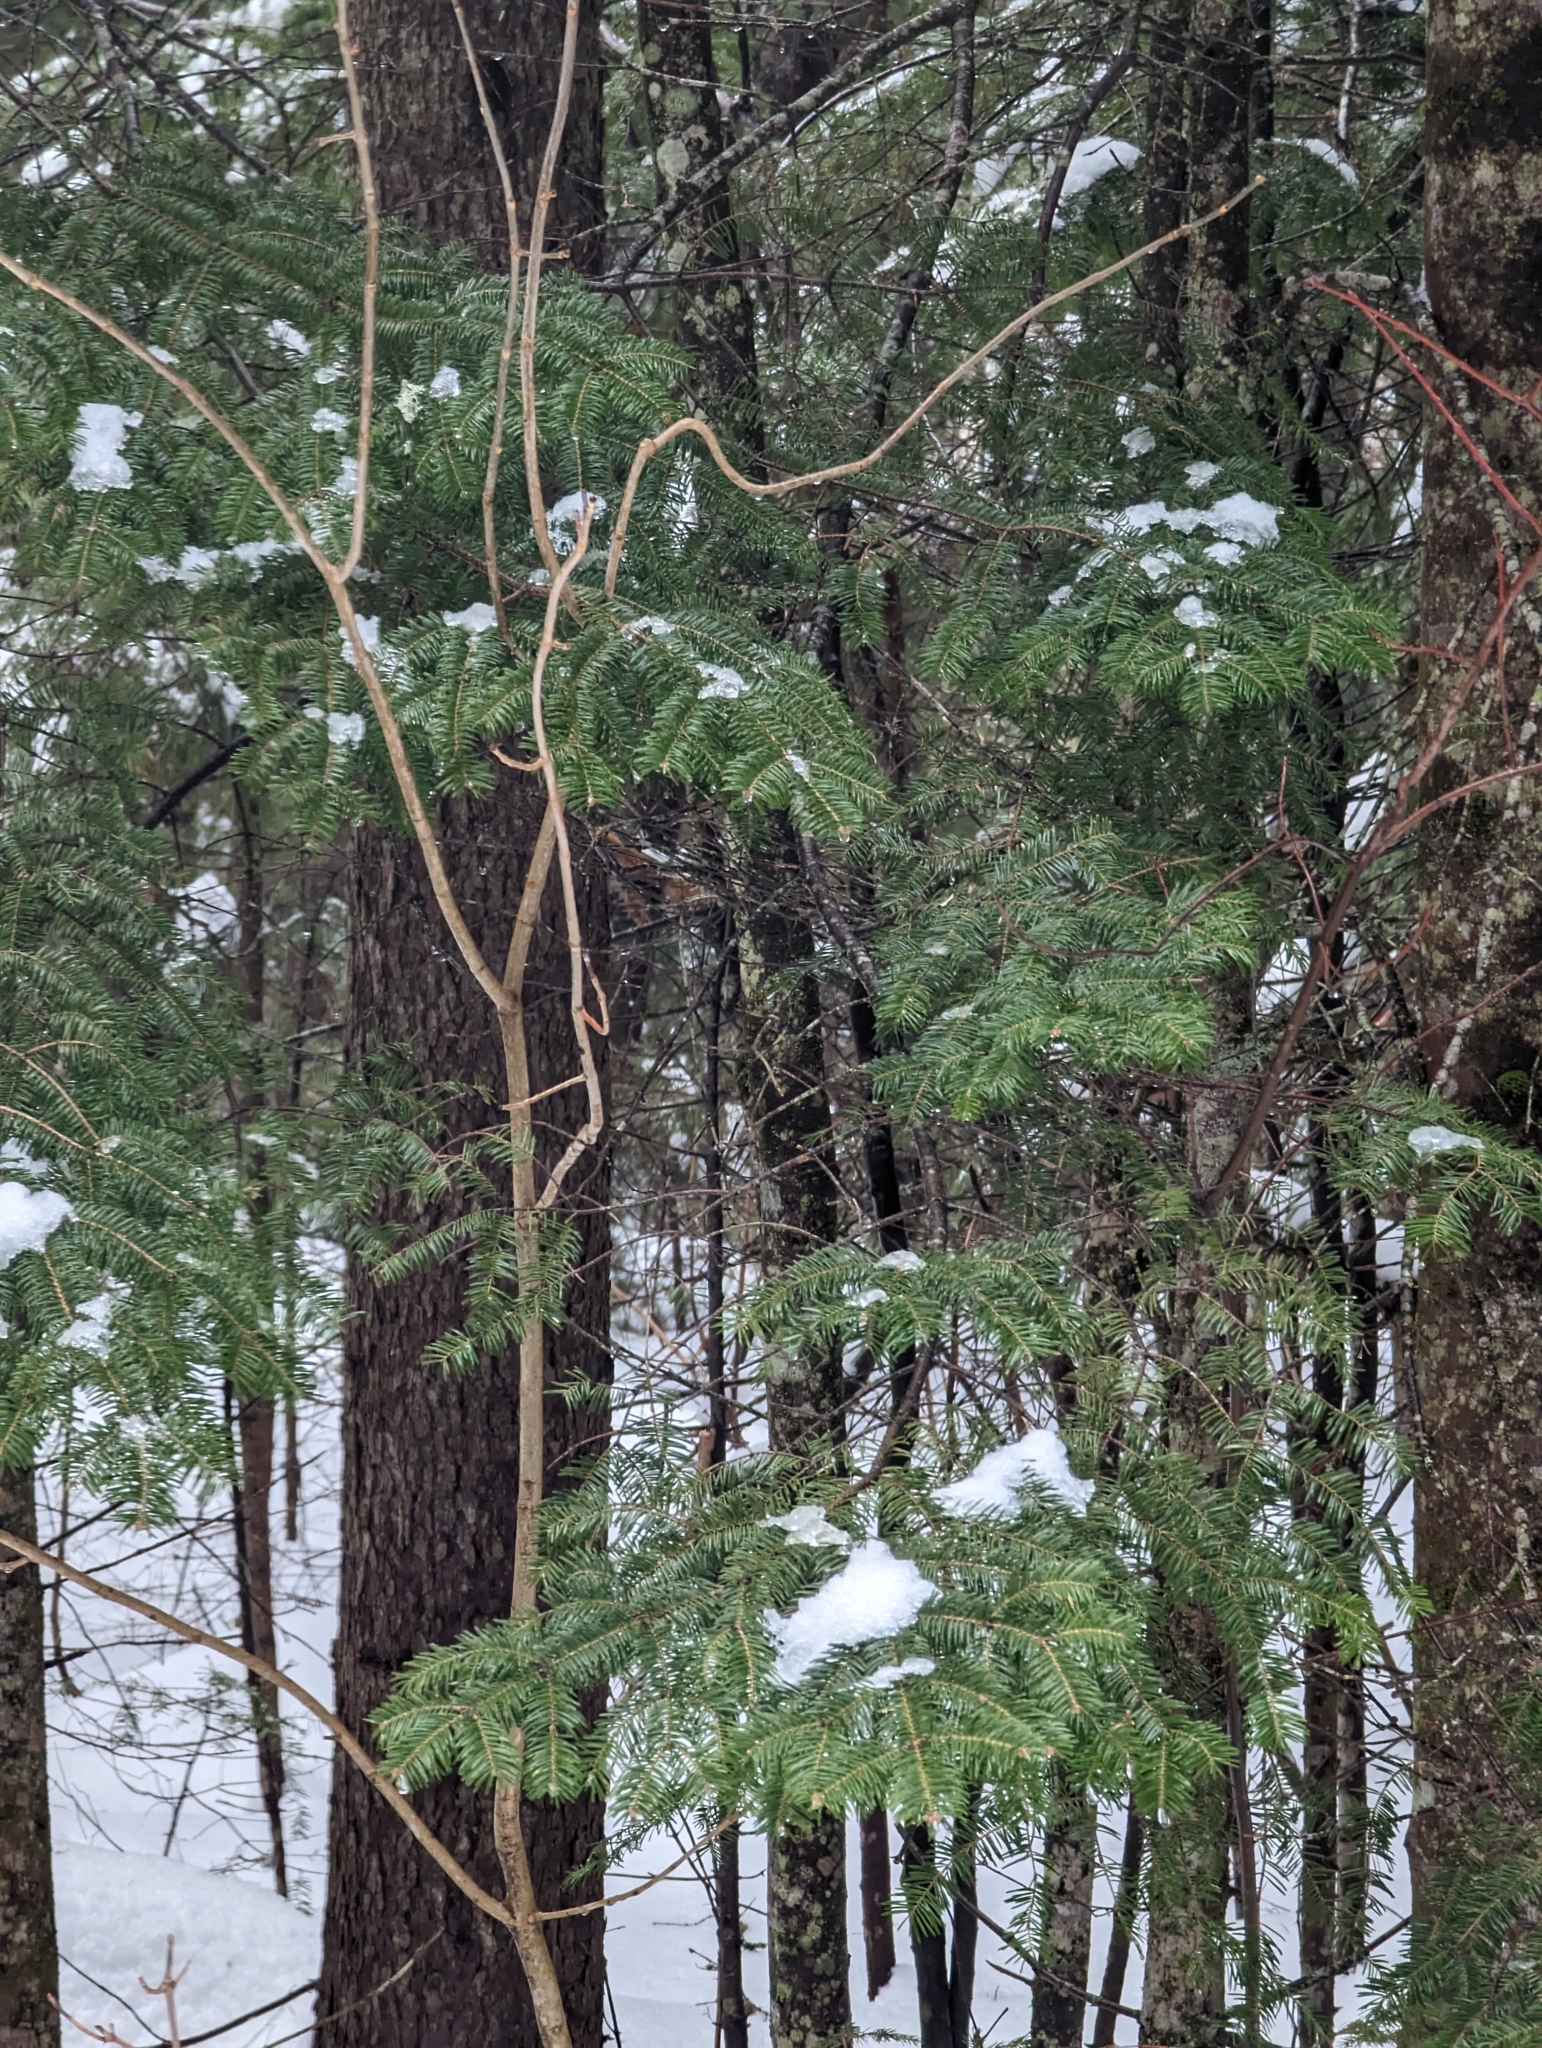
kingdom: Plantae
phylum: Tracheophyta
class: Pinopsida
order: Pinales
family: Pinaceae
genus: Abies
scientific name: Abies balsamea
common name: Balsam fir
